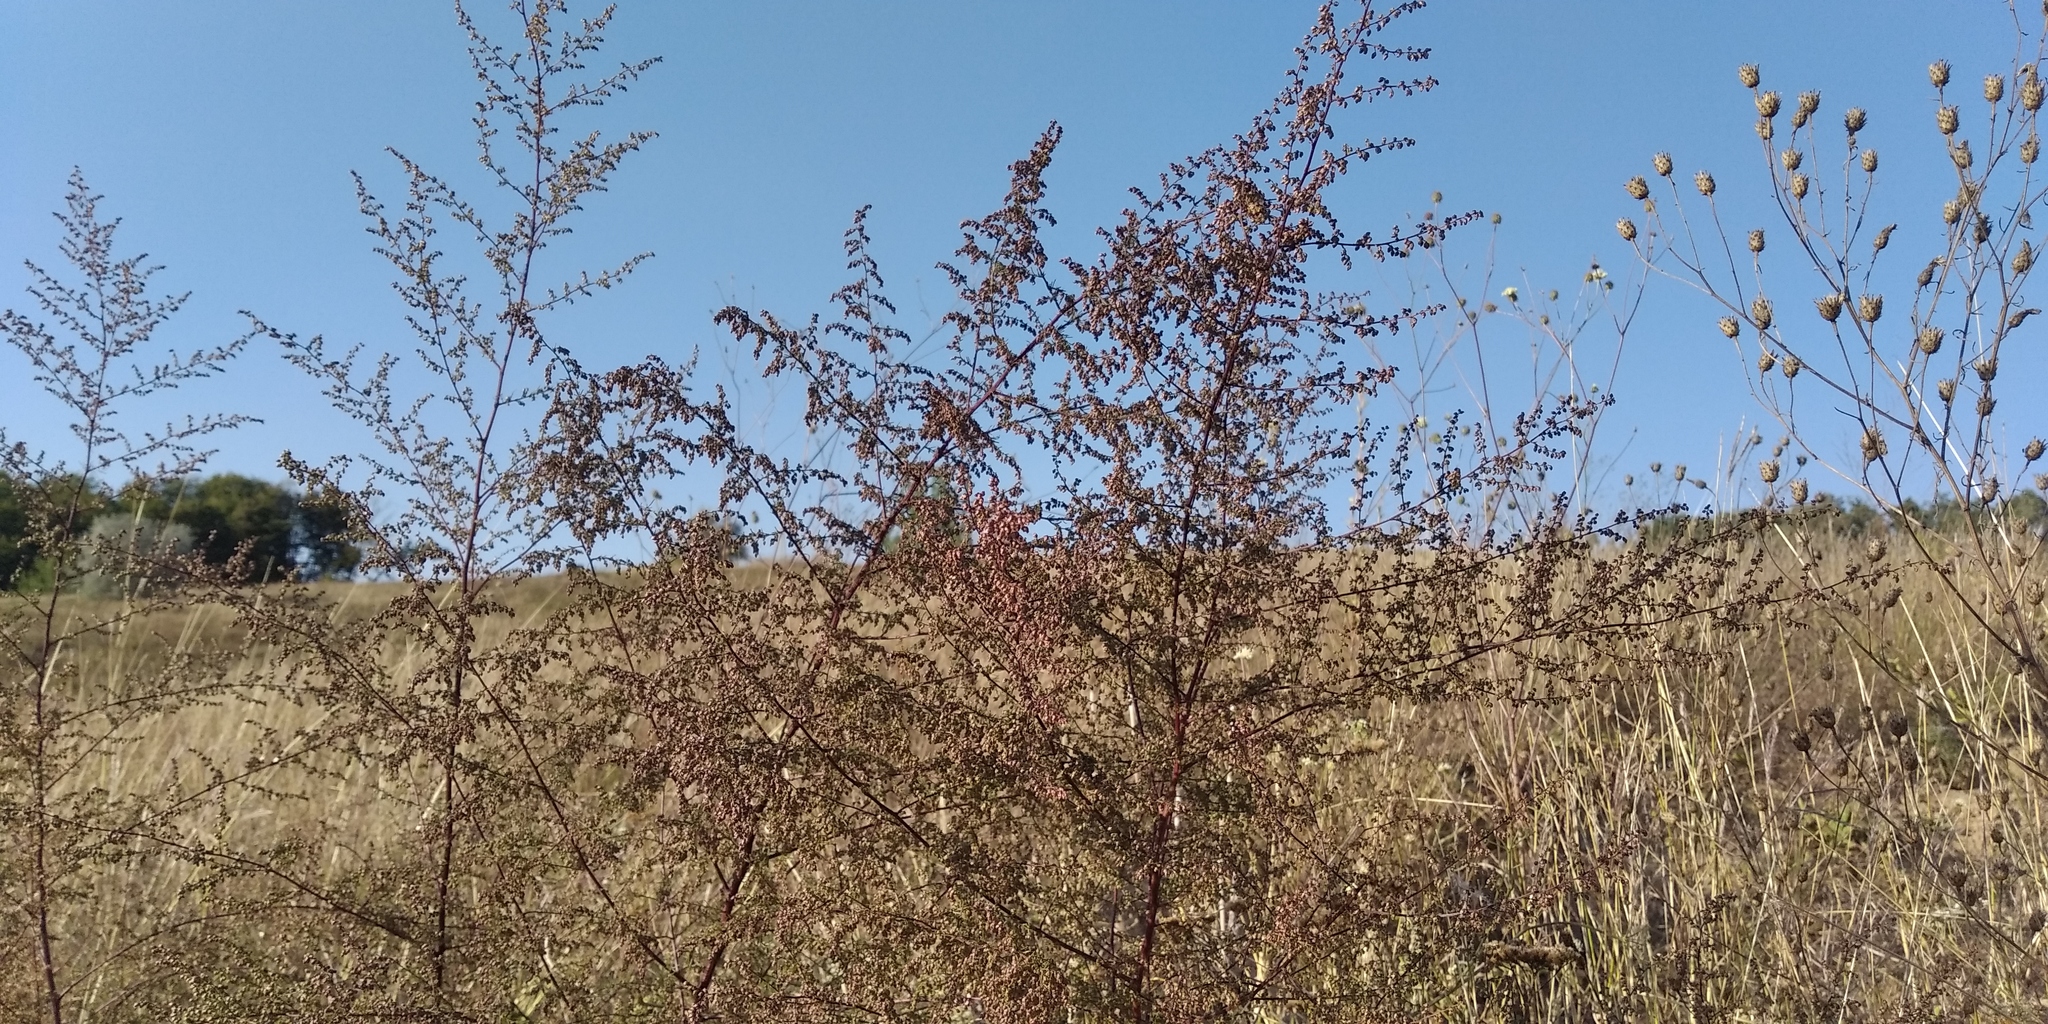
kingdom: Plantae
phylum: Tracheophyta
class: Magnoliopsida
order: Asterales
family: Asteraceae
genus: Artemisia
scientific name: Artemisia scoparia
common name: Redstem wormwood
